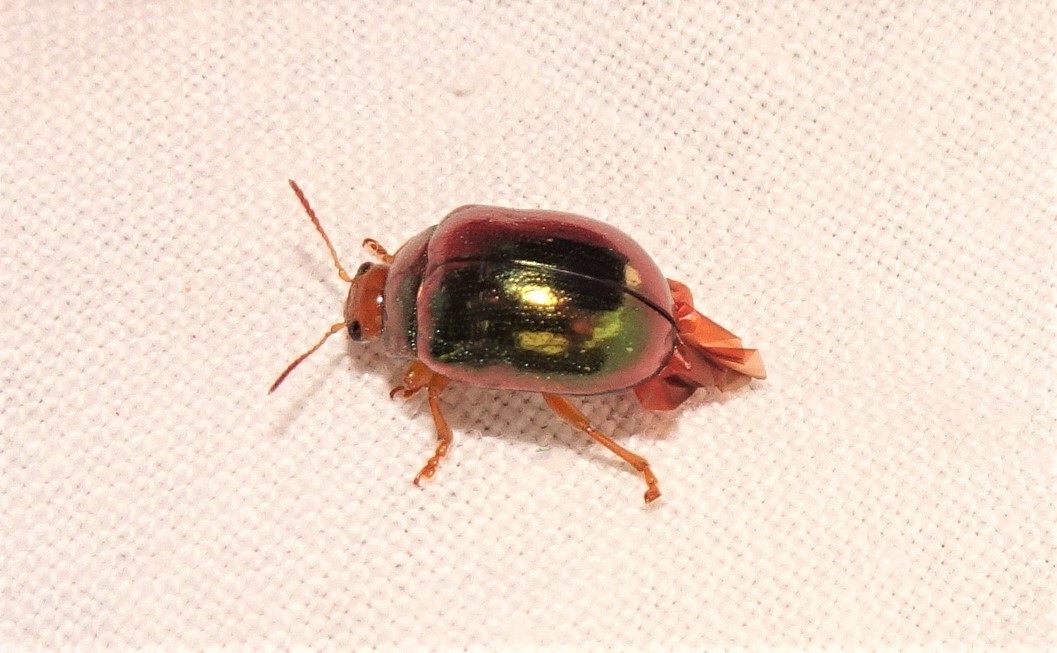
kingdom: Animalia
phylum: Arthropoda
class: Insecta
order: Coleoptera
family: Chrysomelidae
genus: Calomela
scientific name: Calomela
